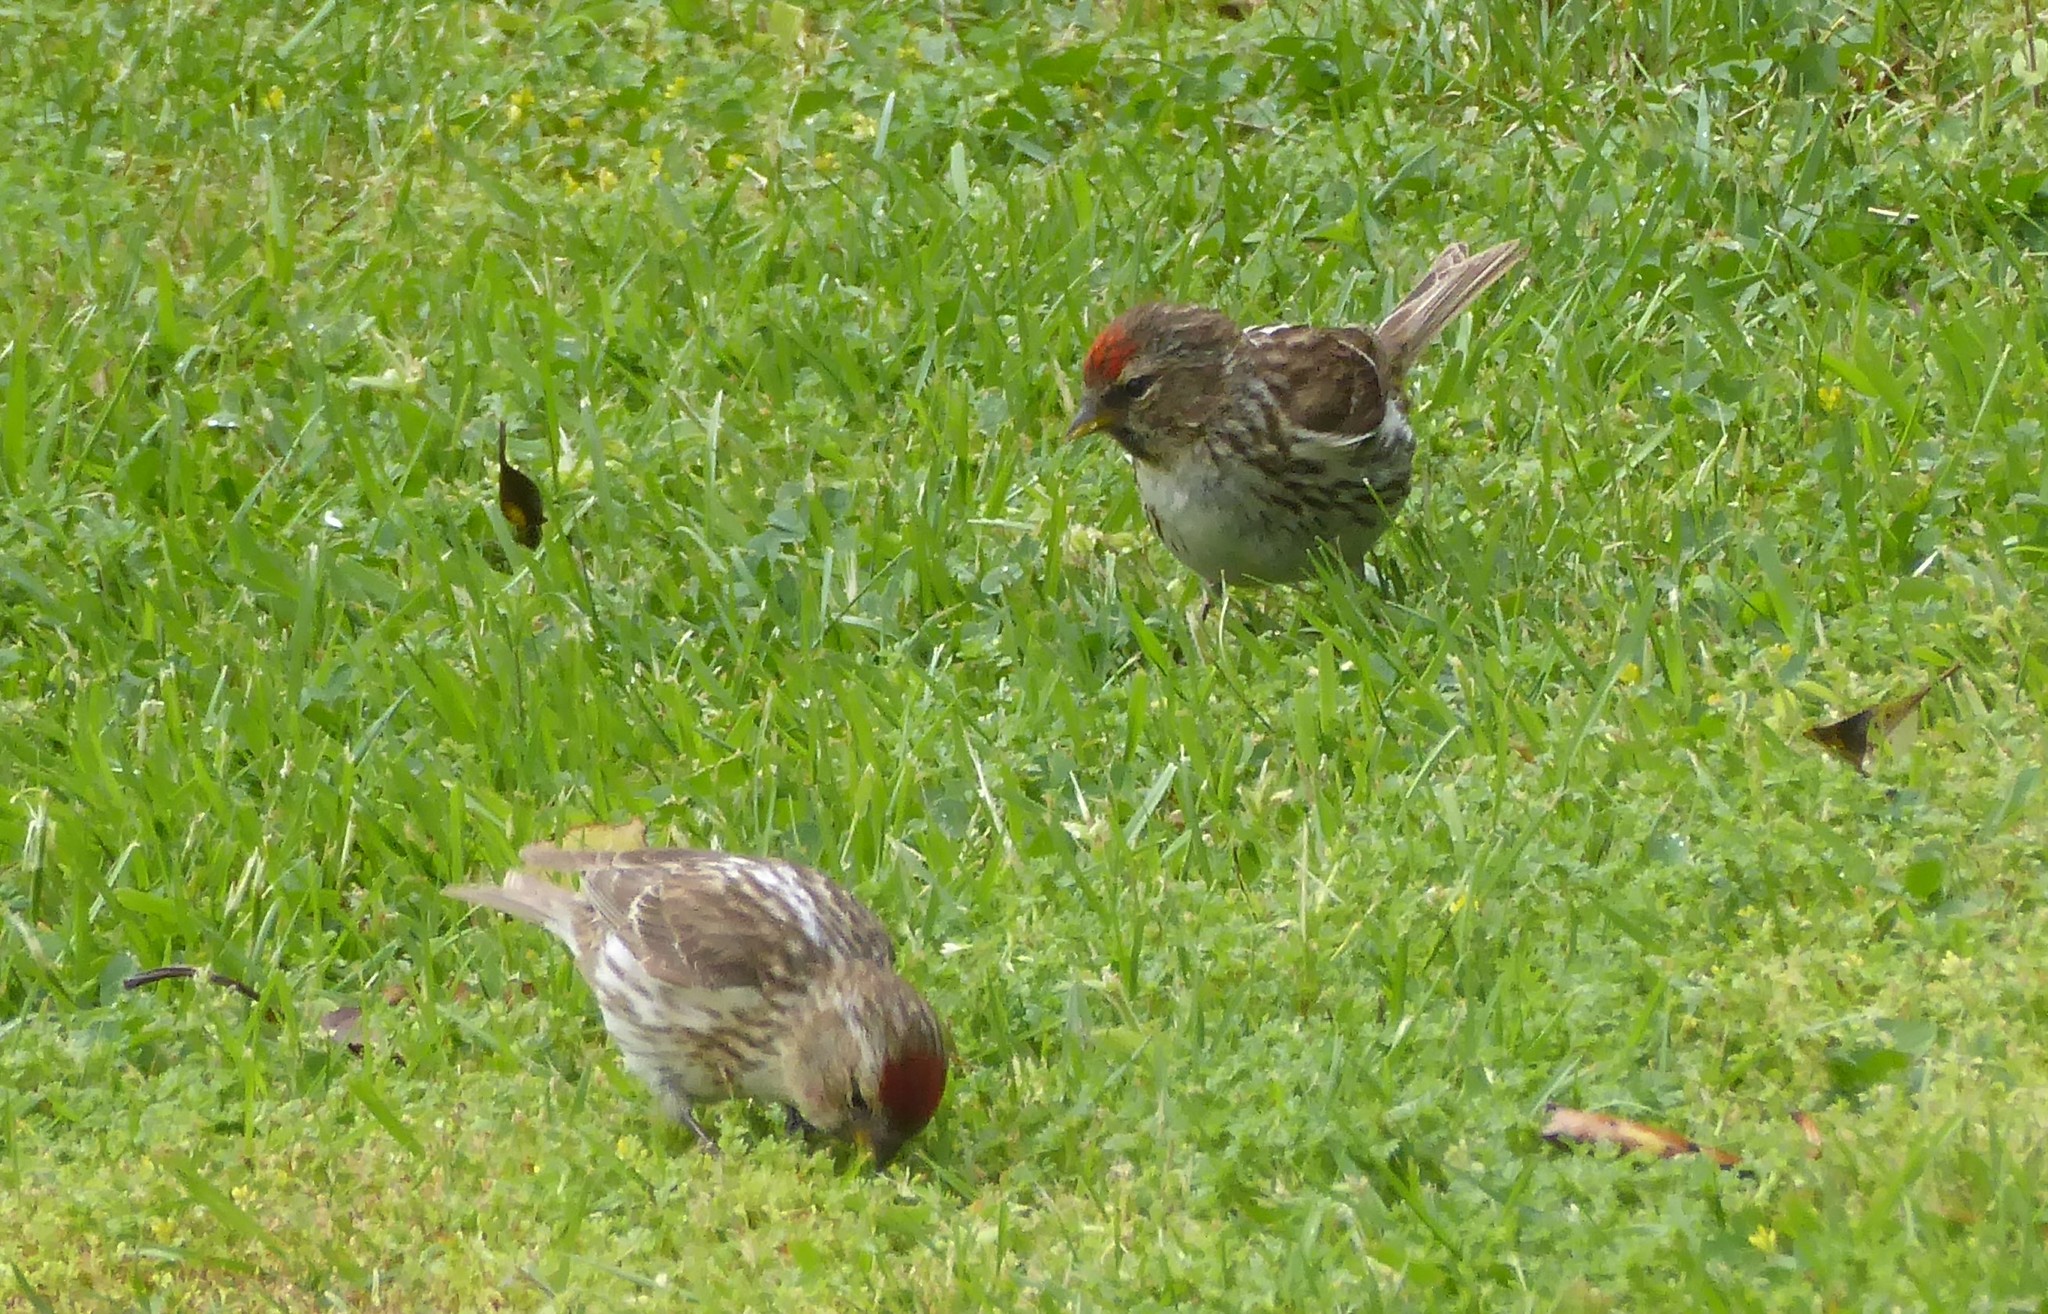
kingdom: Animalia
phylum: Chordata
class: Aves
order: Passeriformes
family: Fringillidae
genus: Acanthis
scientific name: Acanthis flammea
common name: Common redpoll
